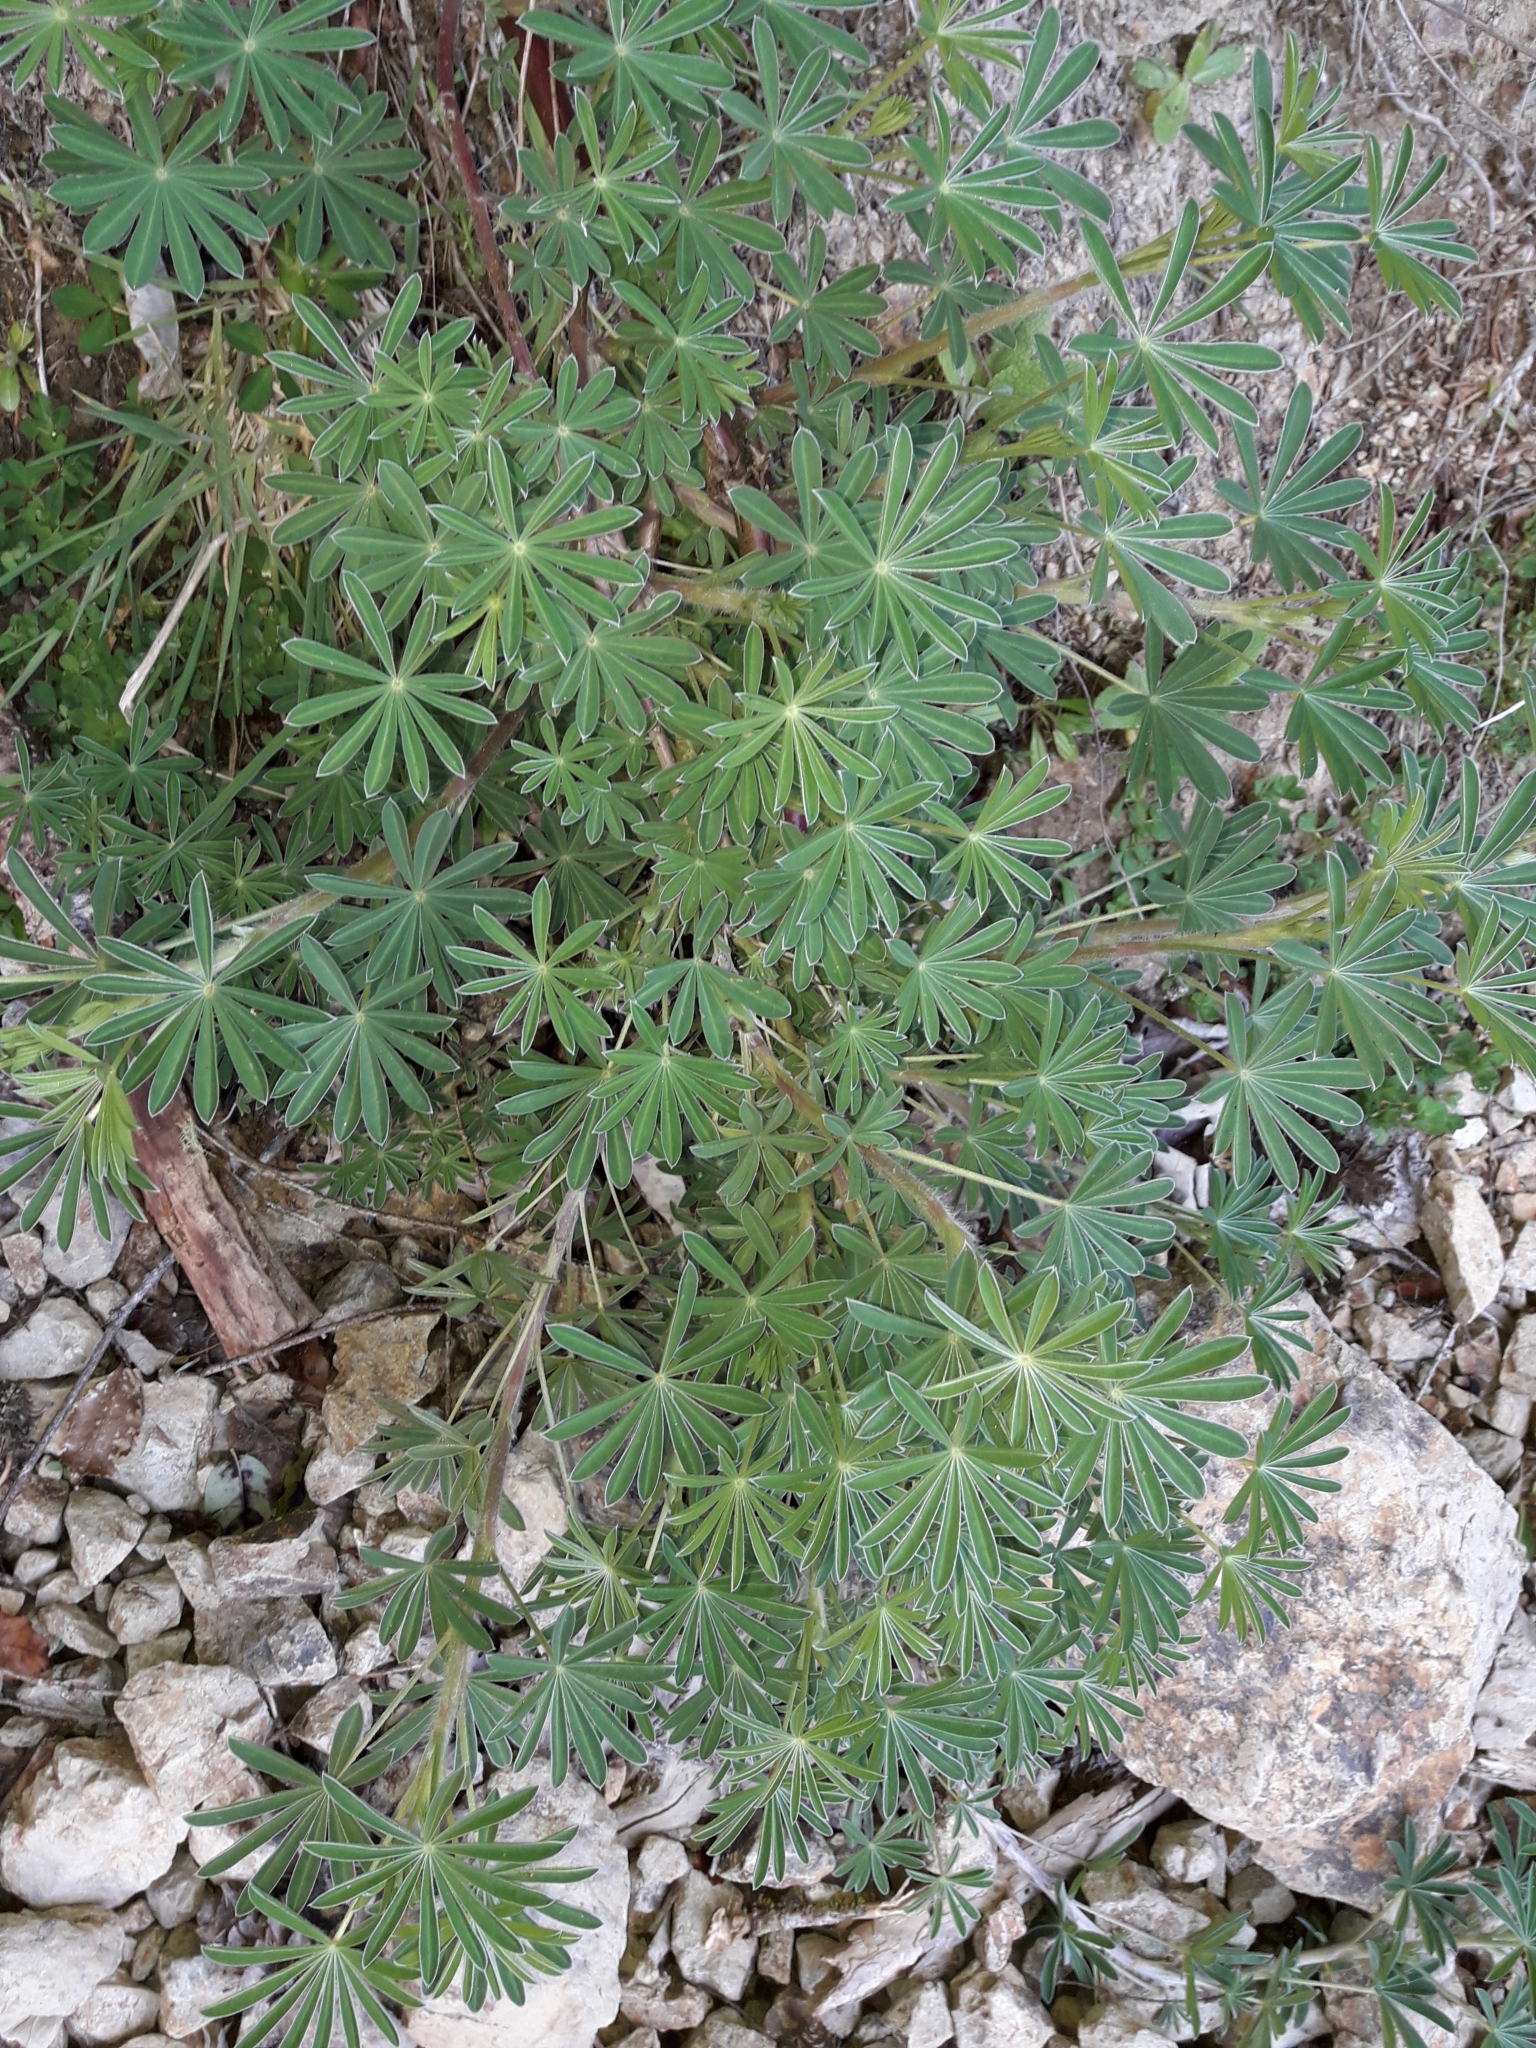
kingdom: Plantae
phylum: Tracheophyta
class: Magnoliopsida
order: Fabales
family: Fabaceae
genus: Lupinus
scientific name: Lupinus arboreus
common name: Yellow bush lupine
